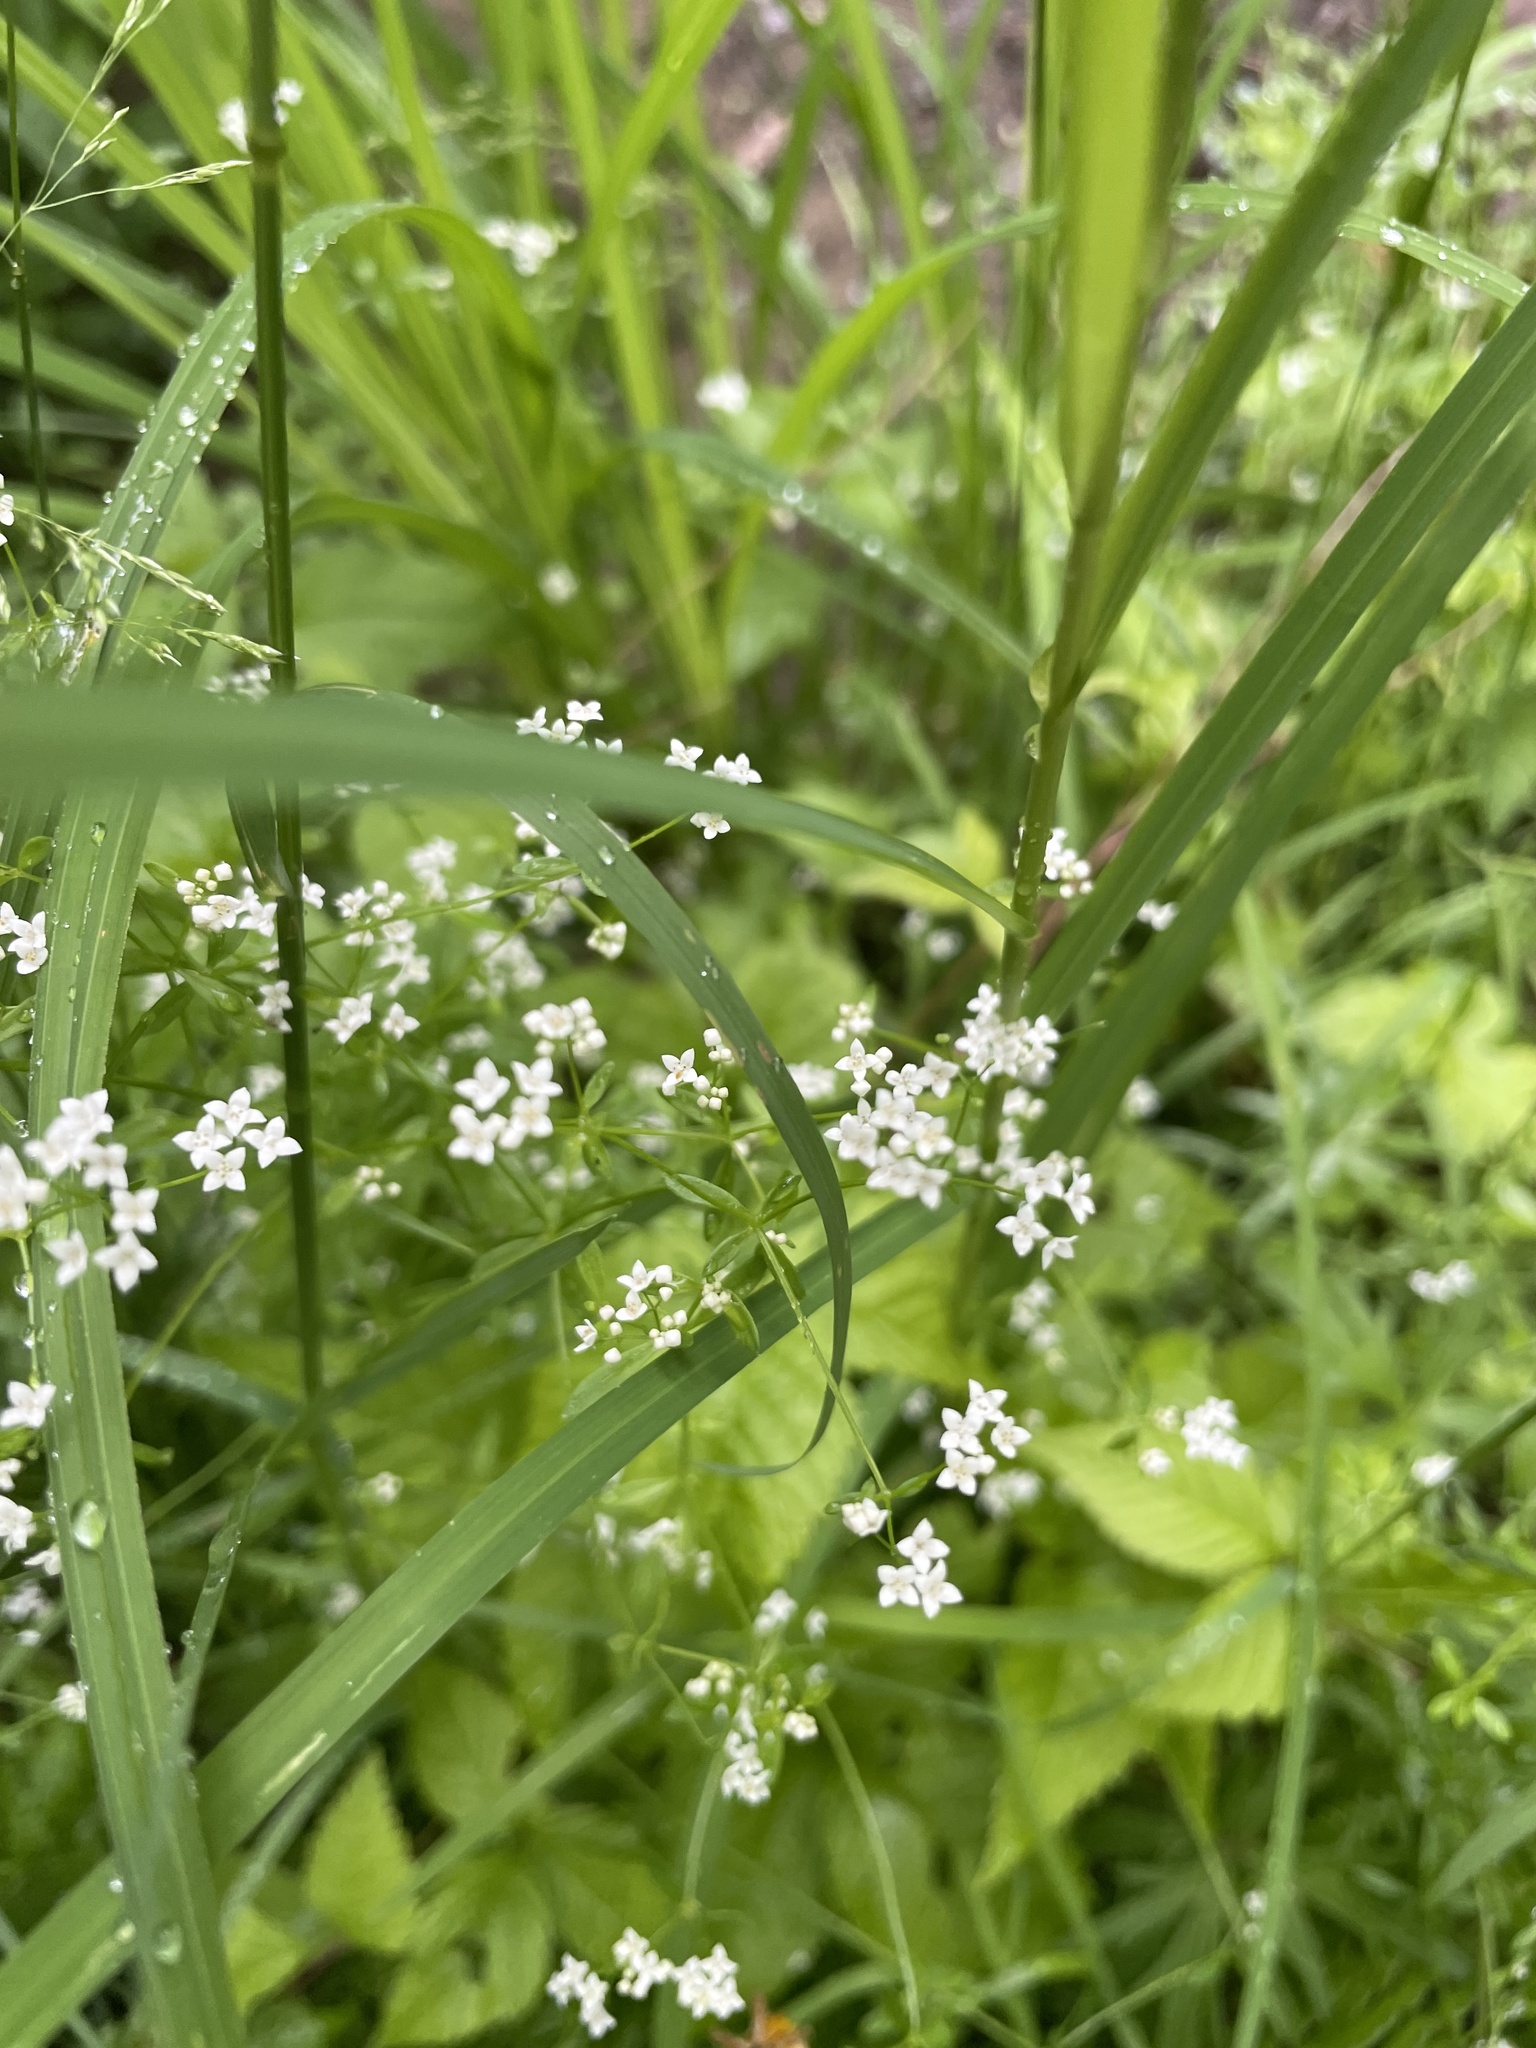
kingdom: Plantae
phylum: Tracheophyta
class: Magnoliopsida
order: Gentianales
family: Rubiaceae
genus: Galium
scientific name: Galium palustre
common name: Common marsh-bedstraw
